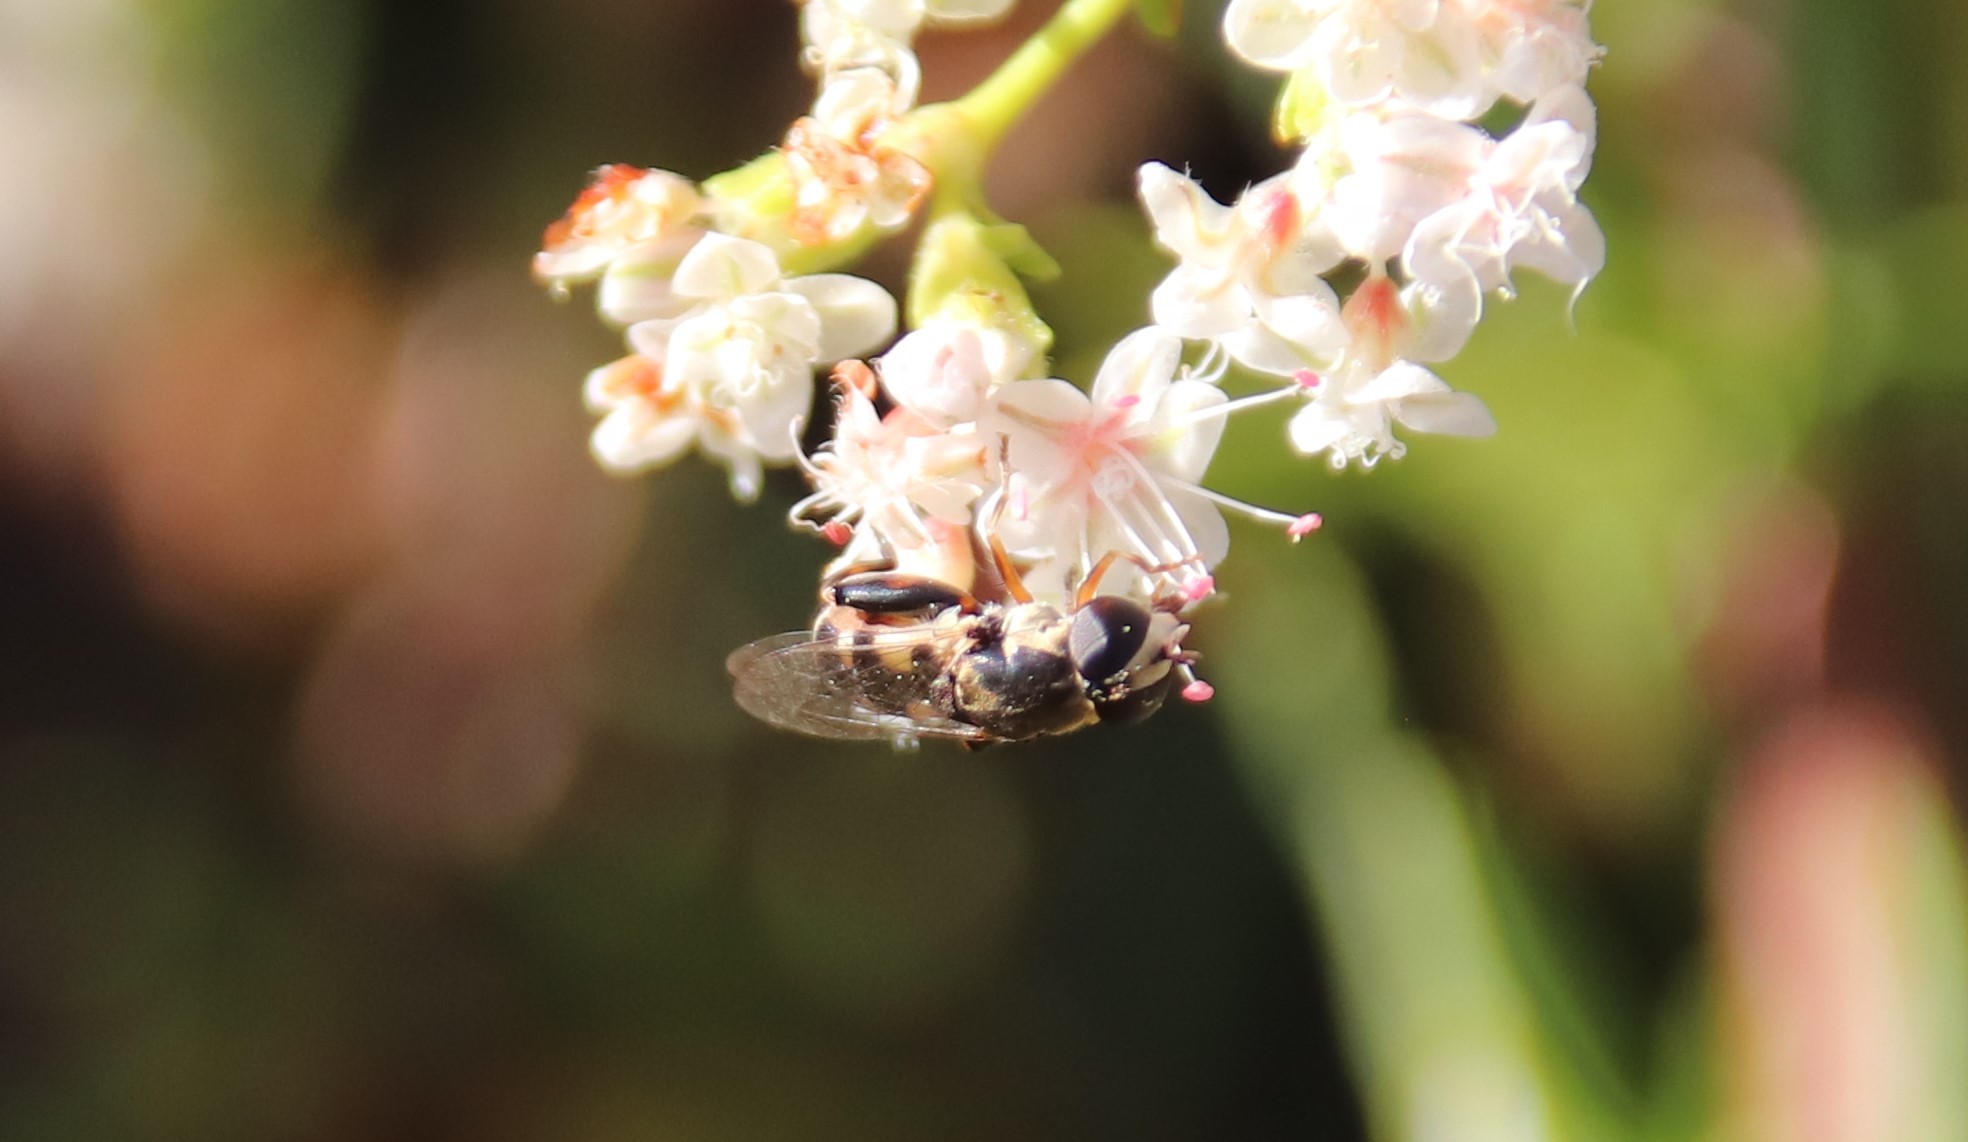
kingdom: Animalia
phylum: Arthropoda
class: Insecta
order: Diptera
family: Syrphidae
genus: Syritta
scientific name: Syritta pipiens
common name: Hover fly
